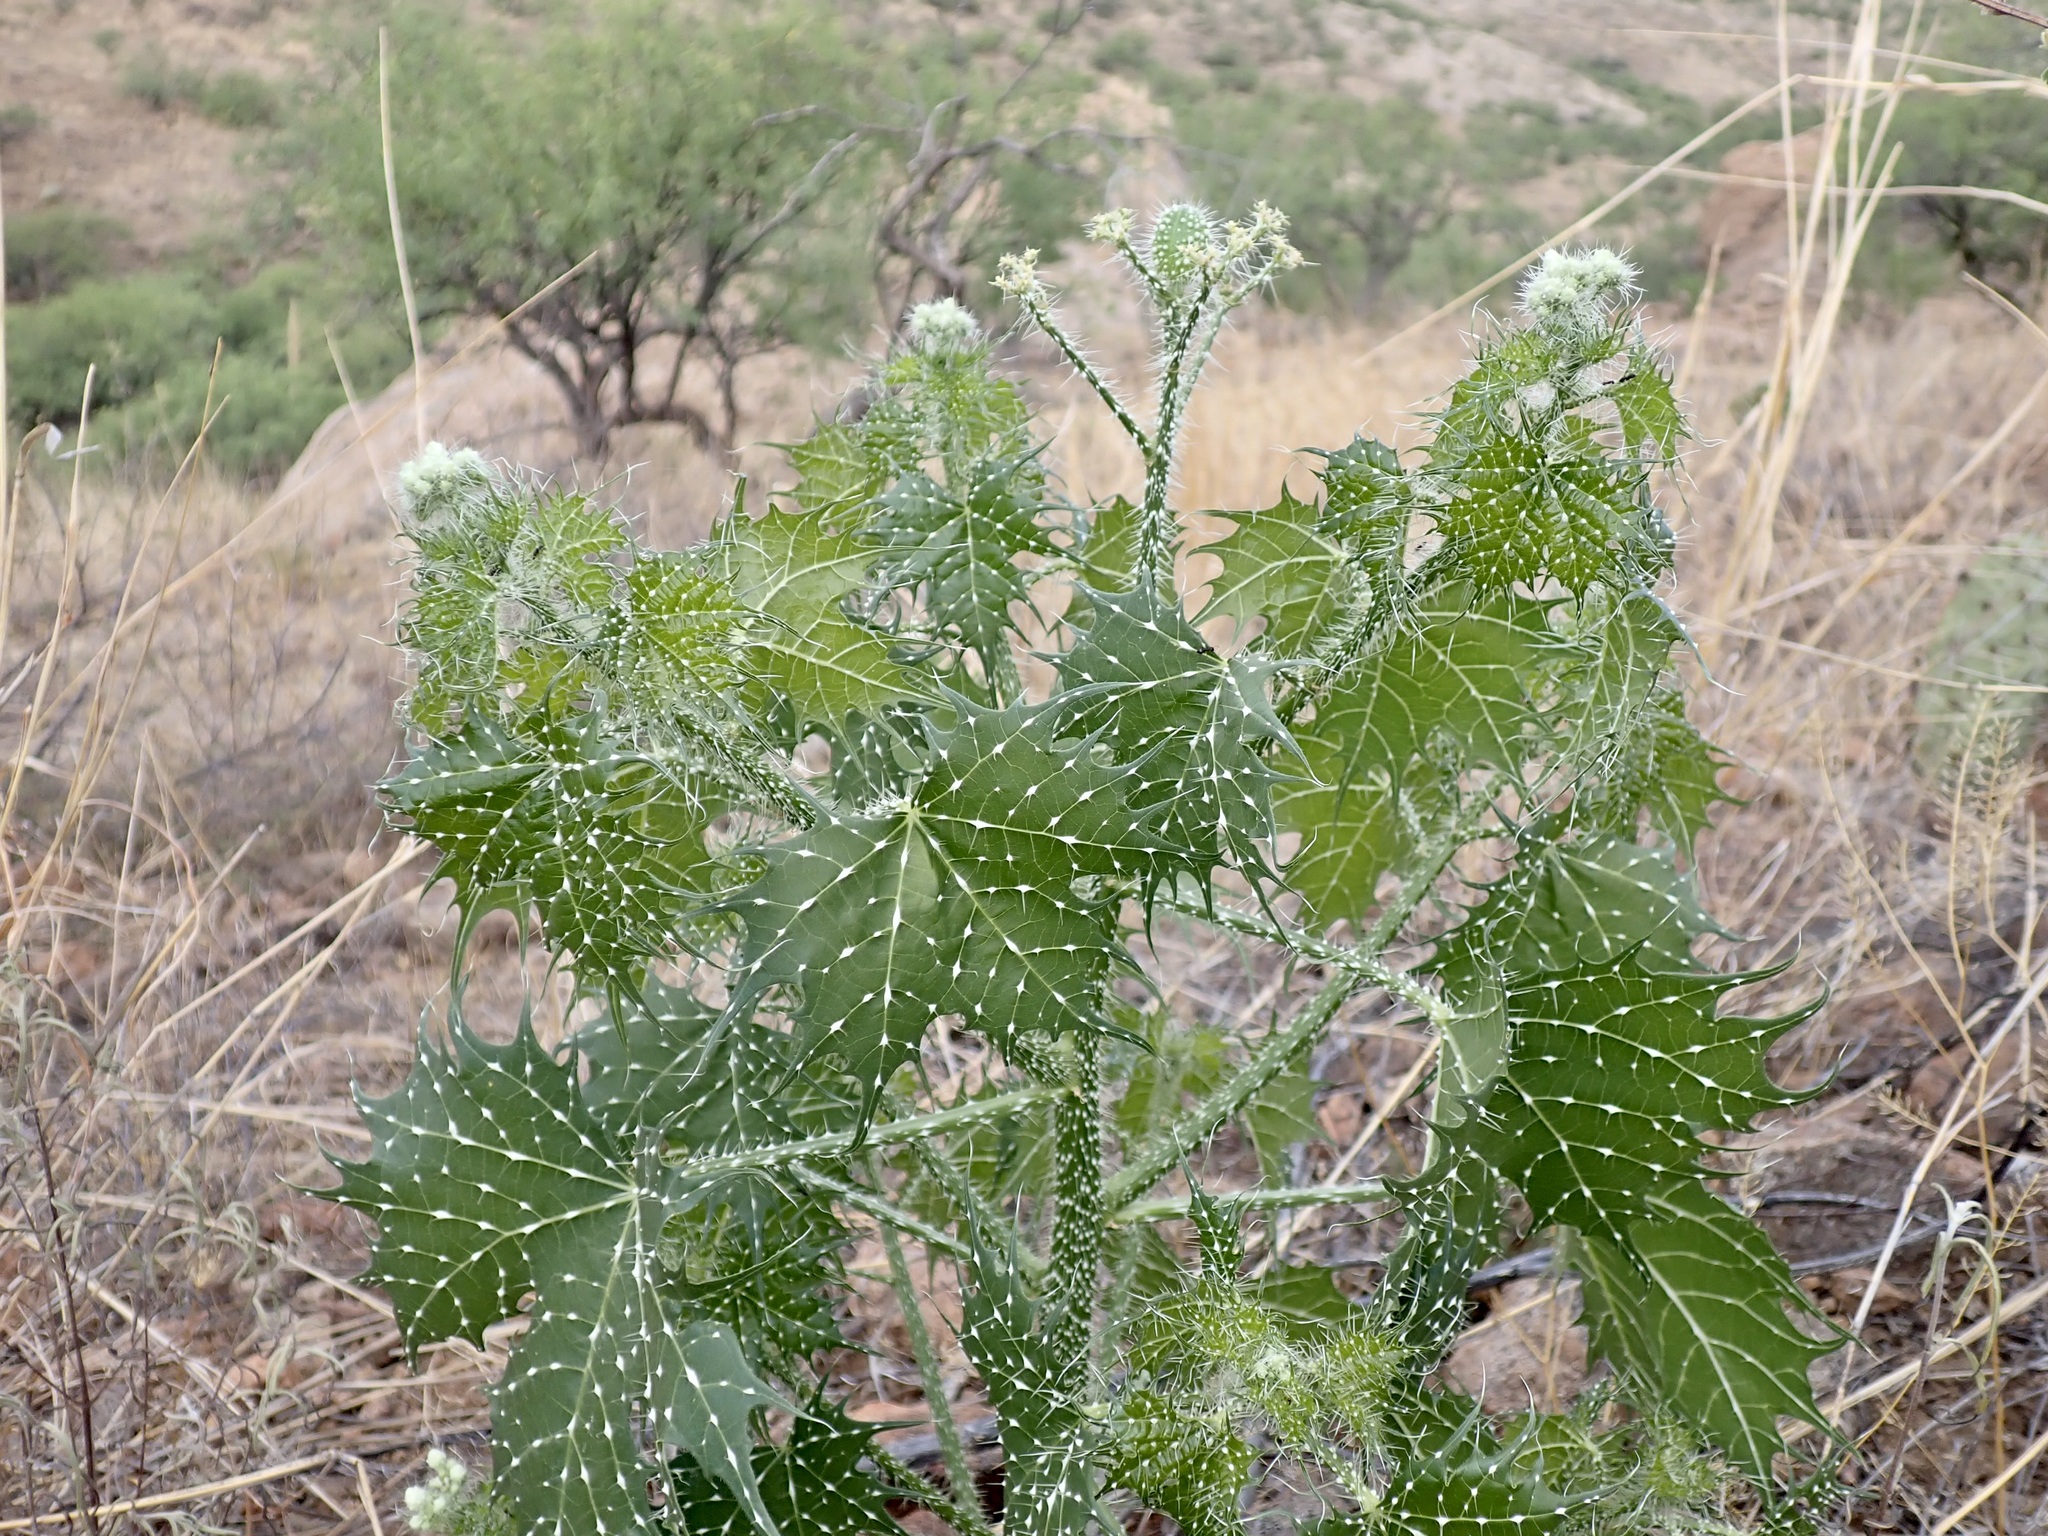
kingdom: Plantae
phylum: Tracheophyta
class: Magnoliopsida
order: Malpighiales
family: Euphorbiaceae
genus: Cnidoscolus
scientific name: Cnidoscolus angustidens
